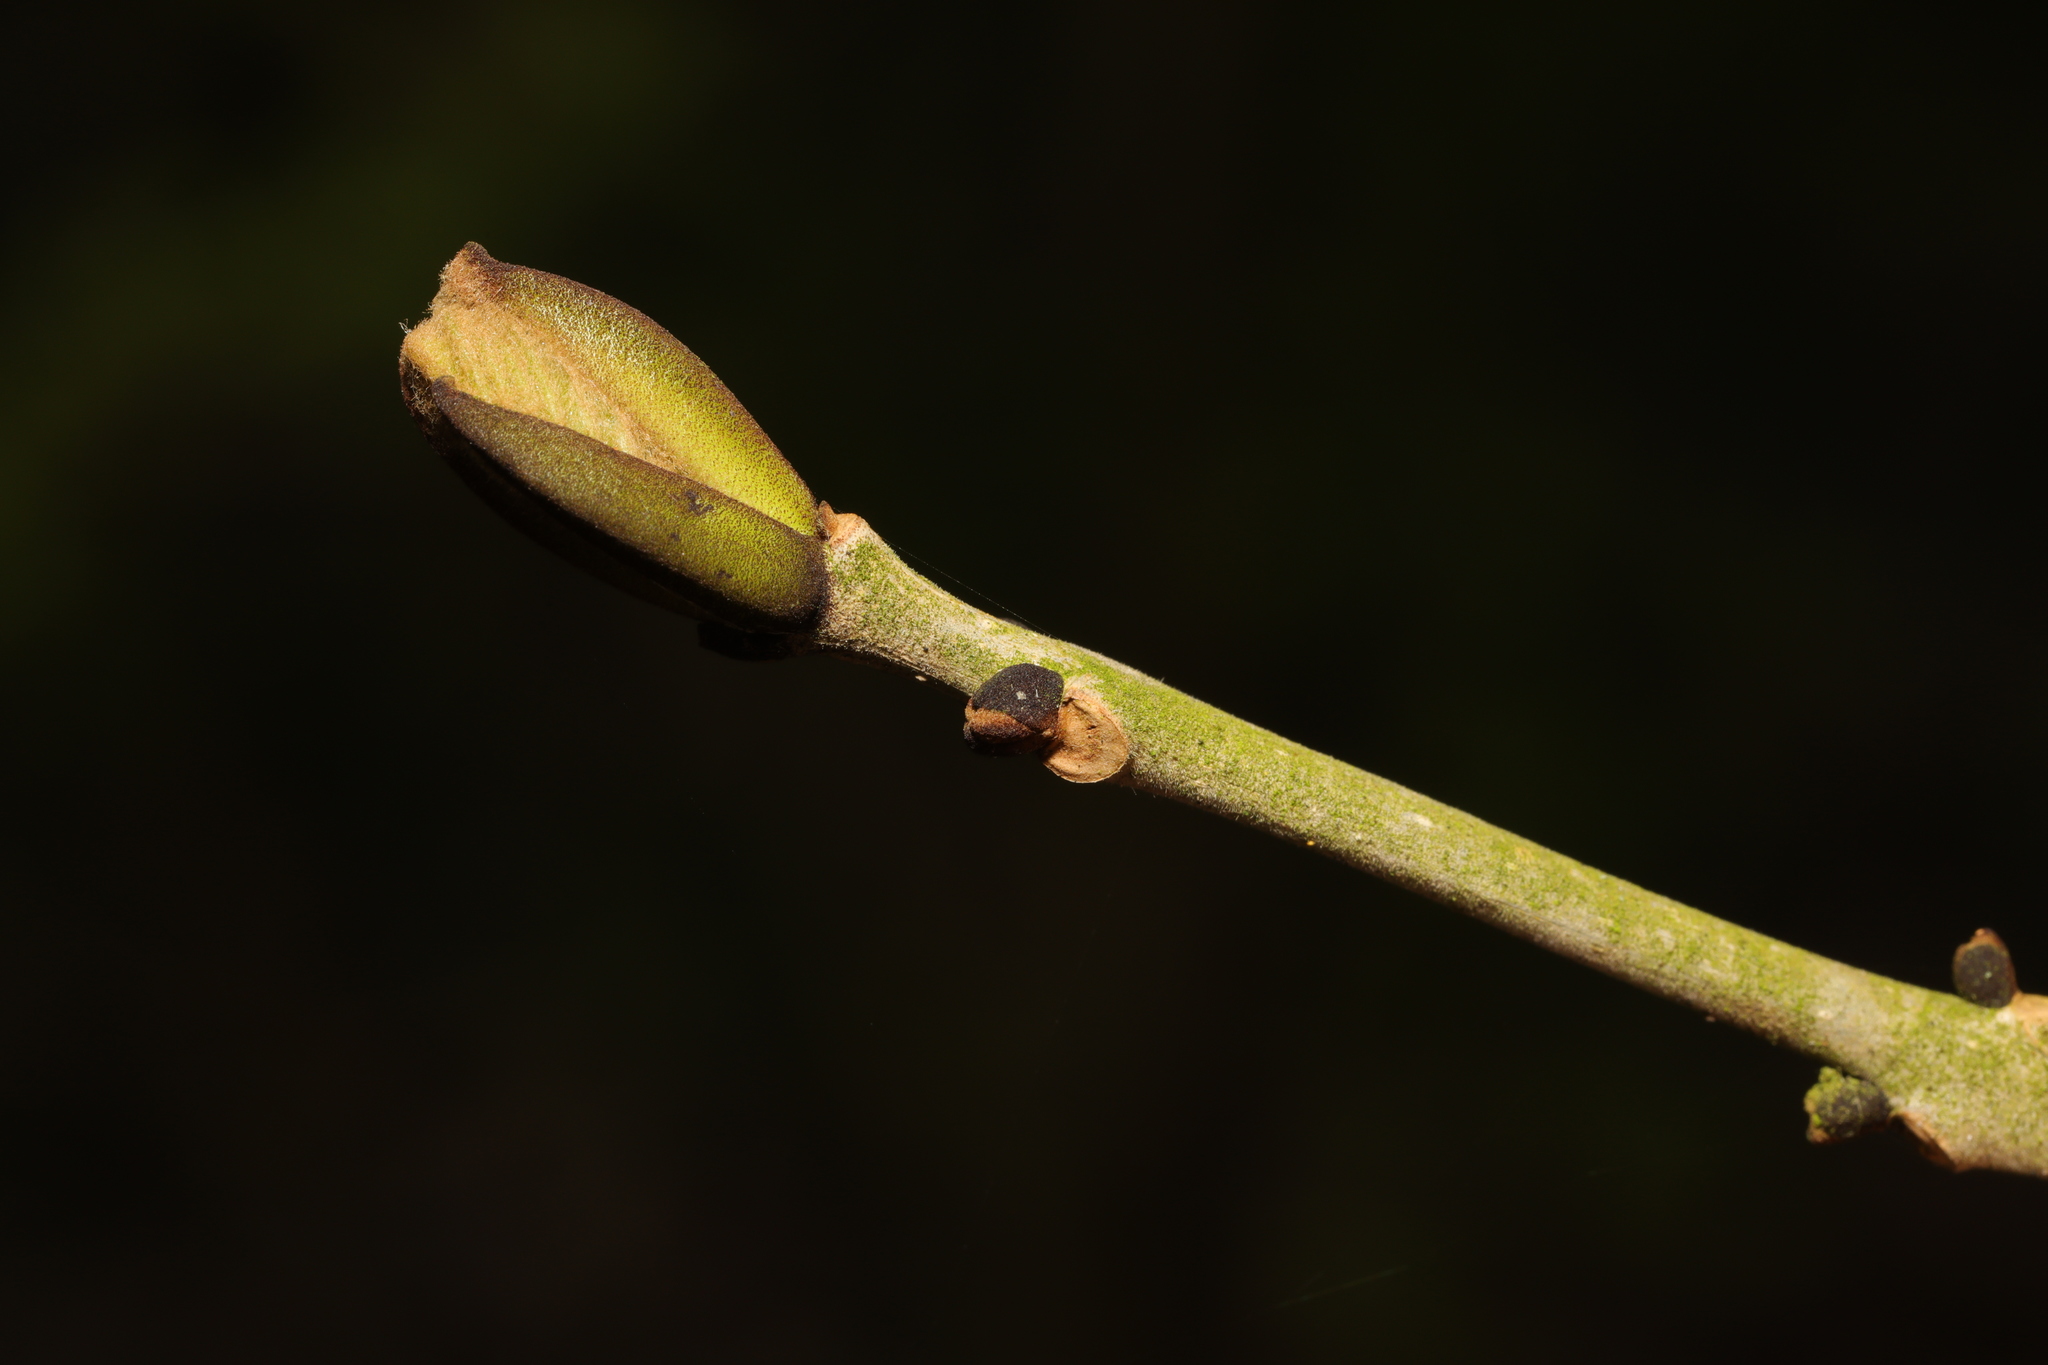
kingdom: Plantae
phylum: Tracheophyta
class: Magnoliopsida
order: Lamiales
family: Oleaceae
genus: Fraxinus
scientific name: Fraxinus excelsior
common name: European ash
